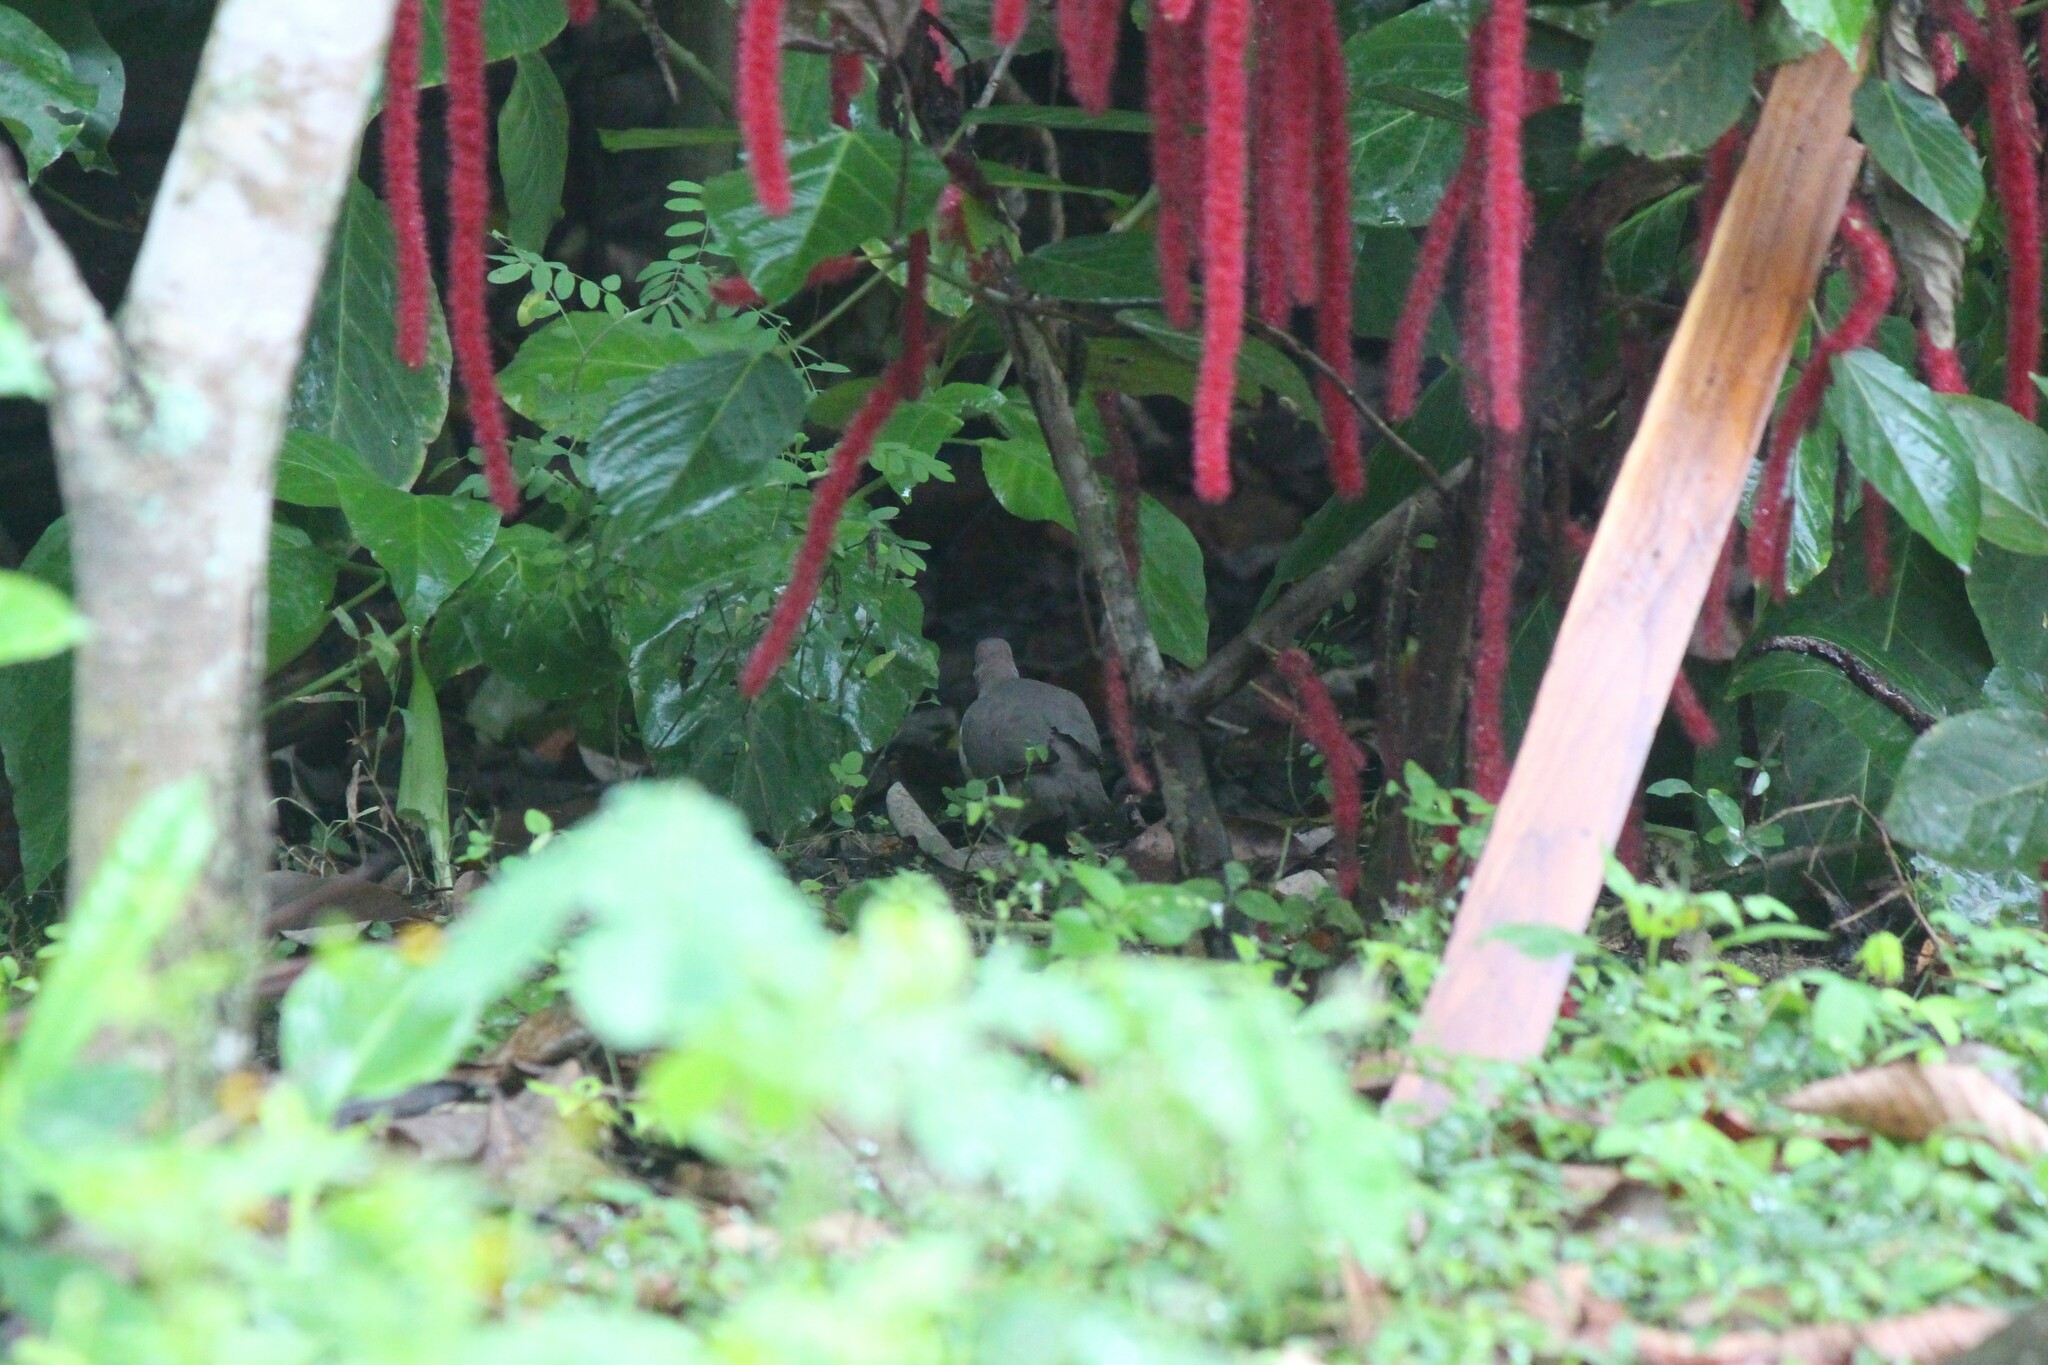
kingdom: Animalia
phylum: Chordata
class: Aves
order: Columbiformes
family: Columbidae
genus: Leptotila
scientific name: Leptotila verreauxi
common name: White-tipped dove
